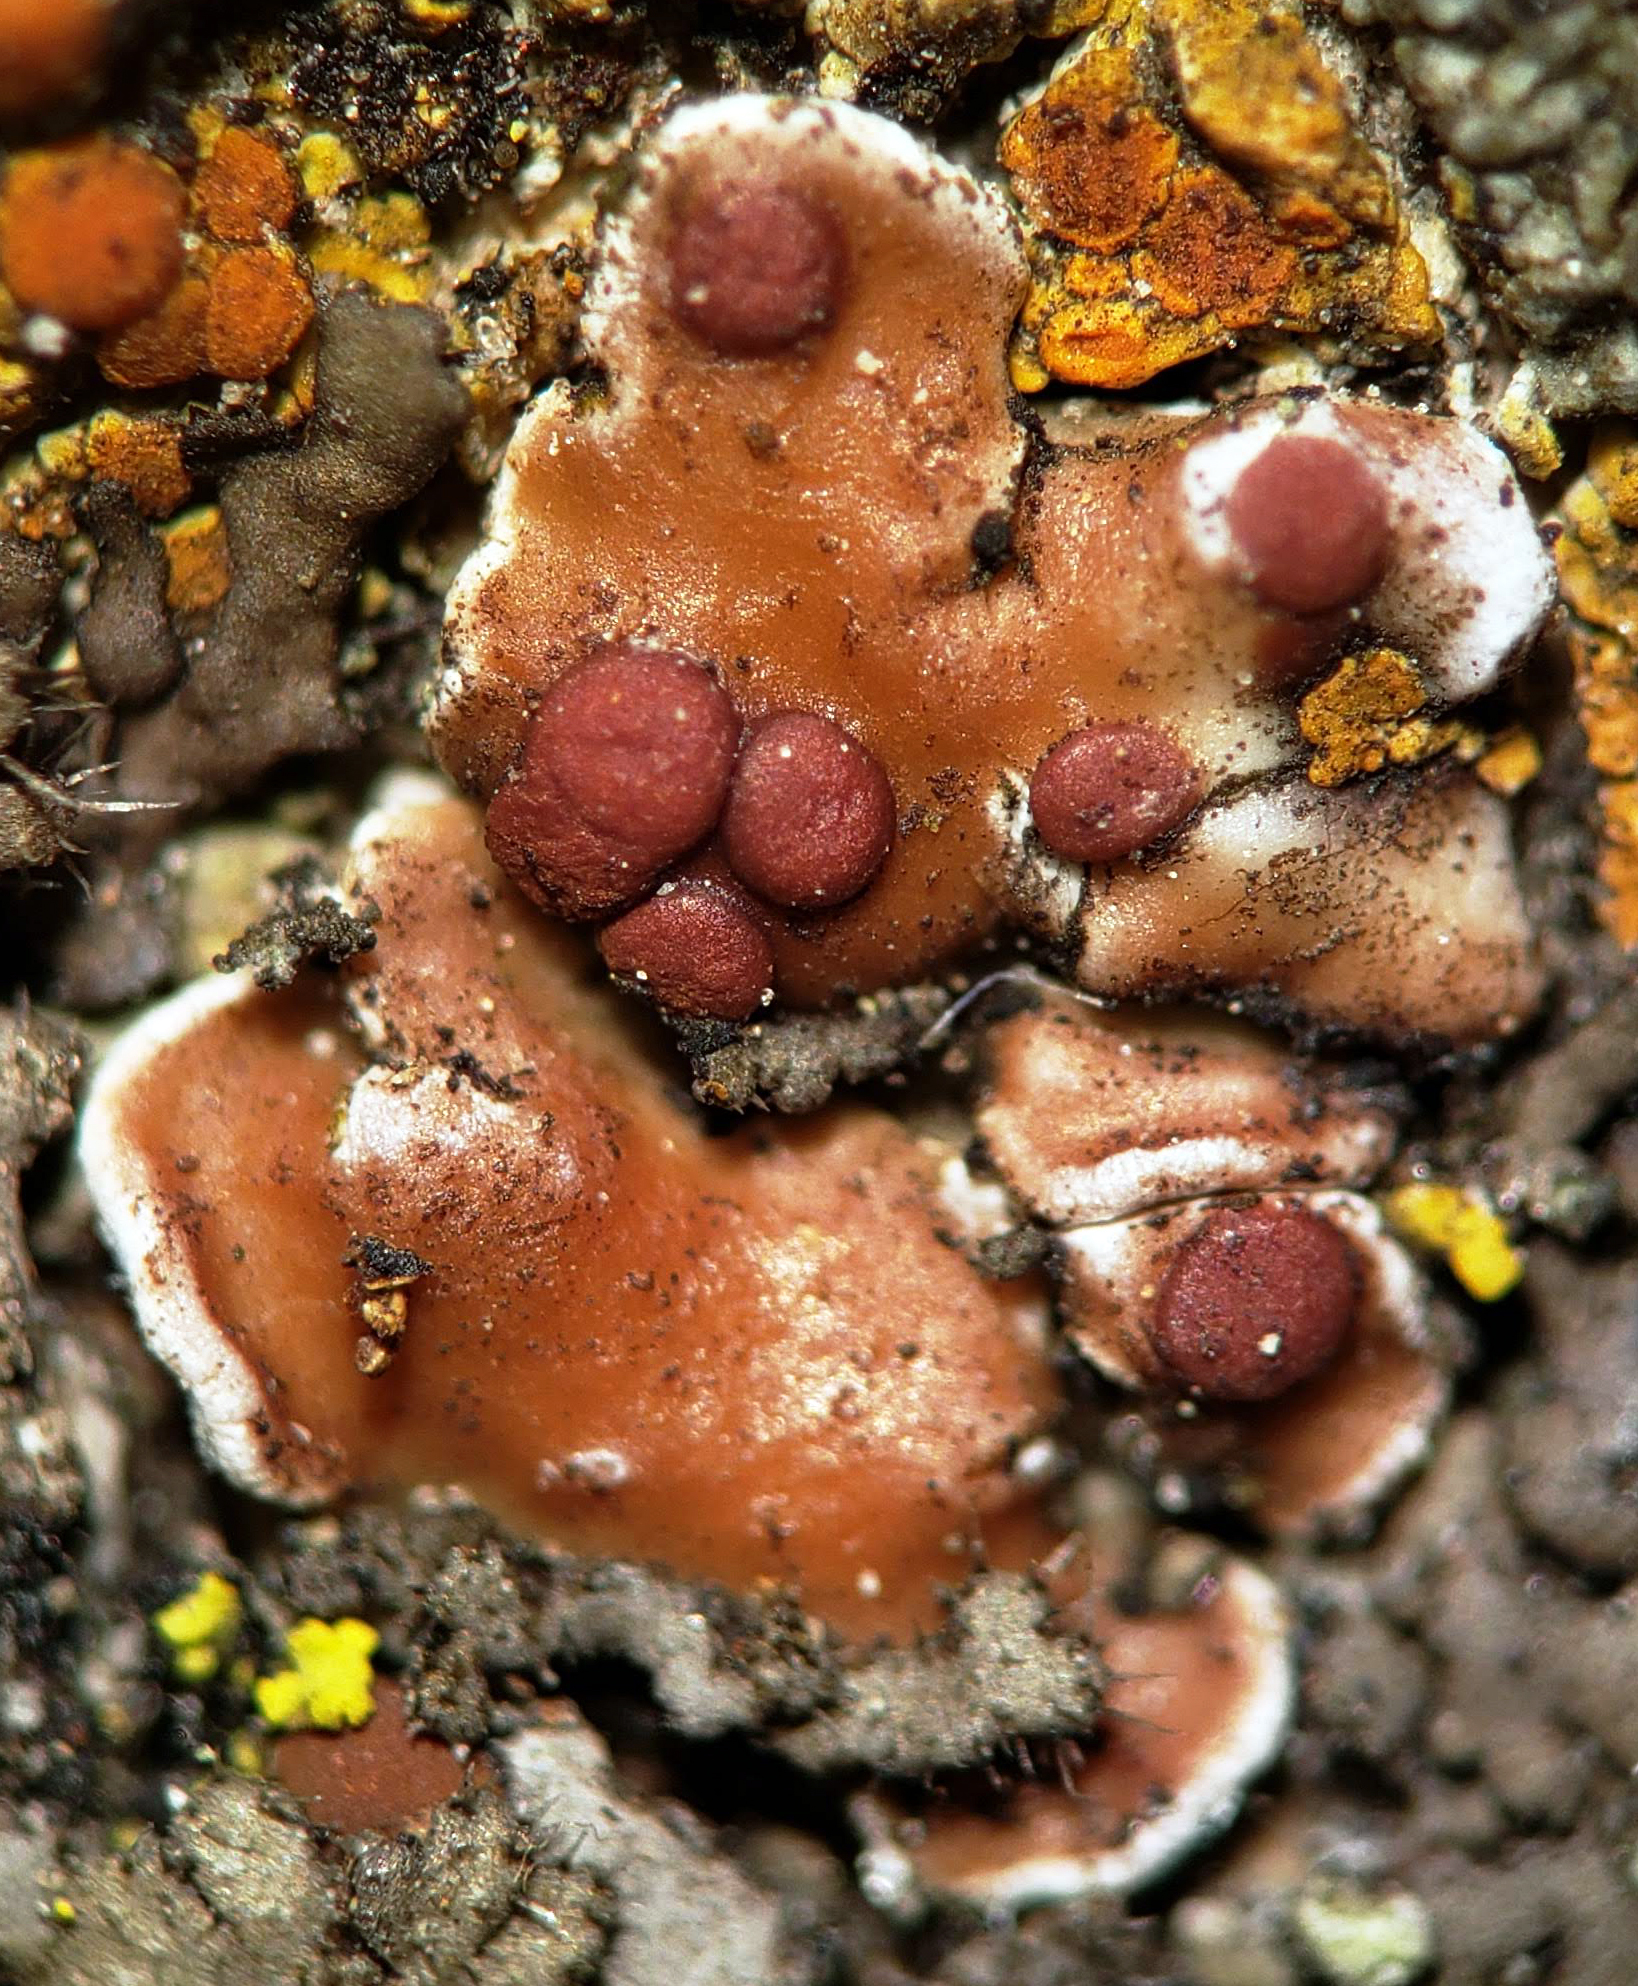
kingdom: Fungi
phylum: Ascomycota
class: Lecanoromycetes
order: Lecanorales
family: Psoraceae
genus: Psora
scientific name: Psora pseudorussellii
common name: Bordered scale lichen
